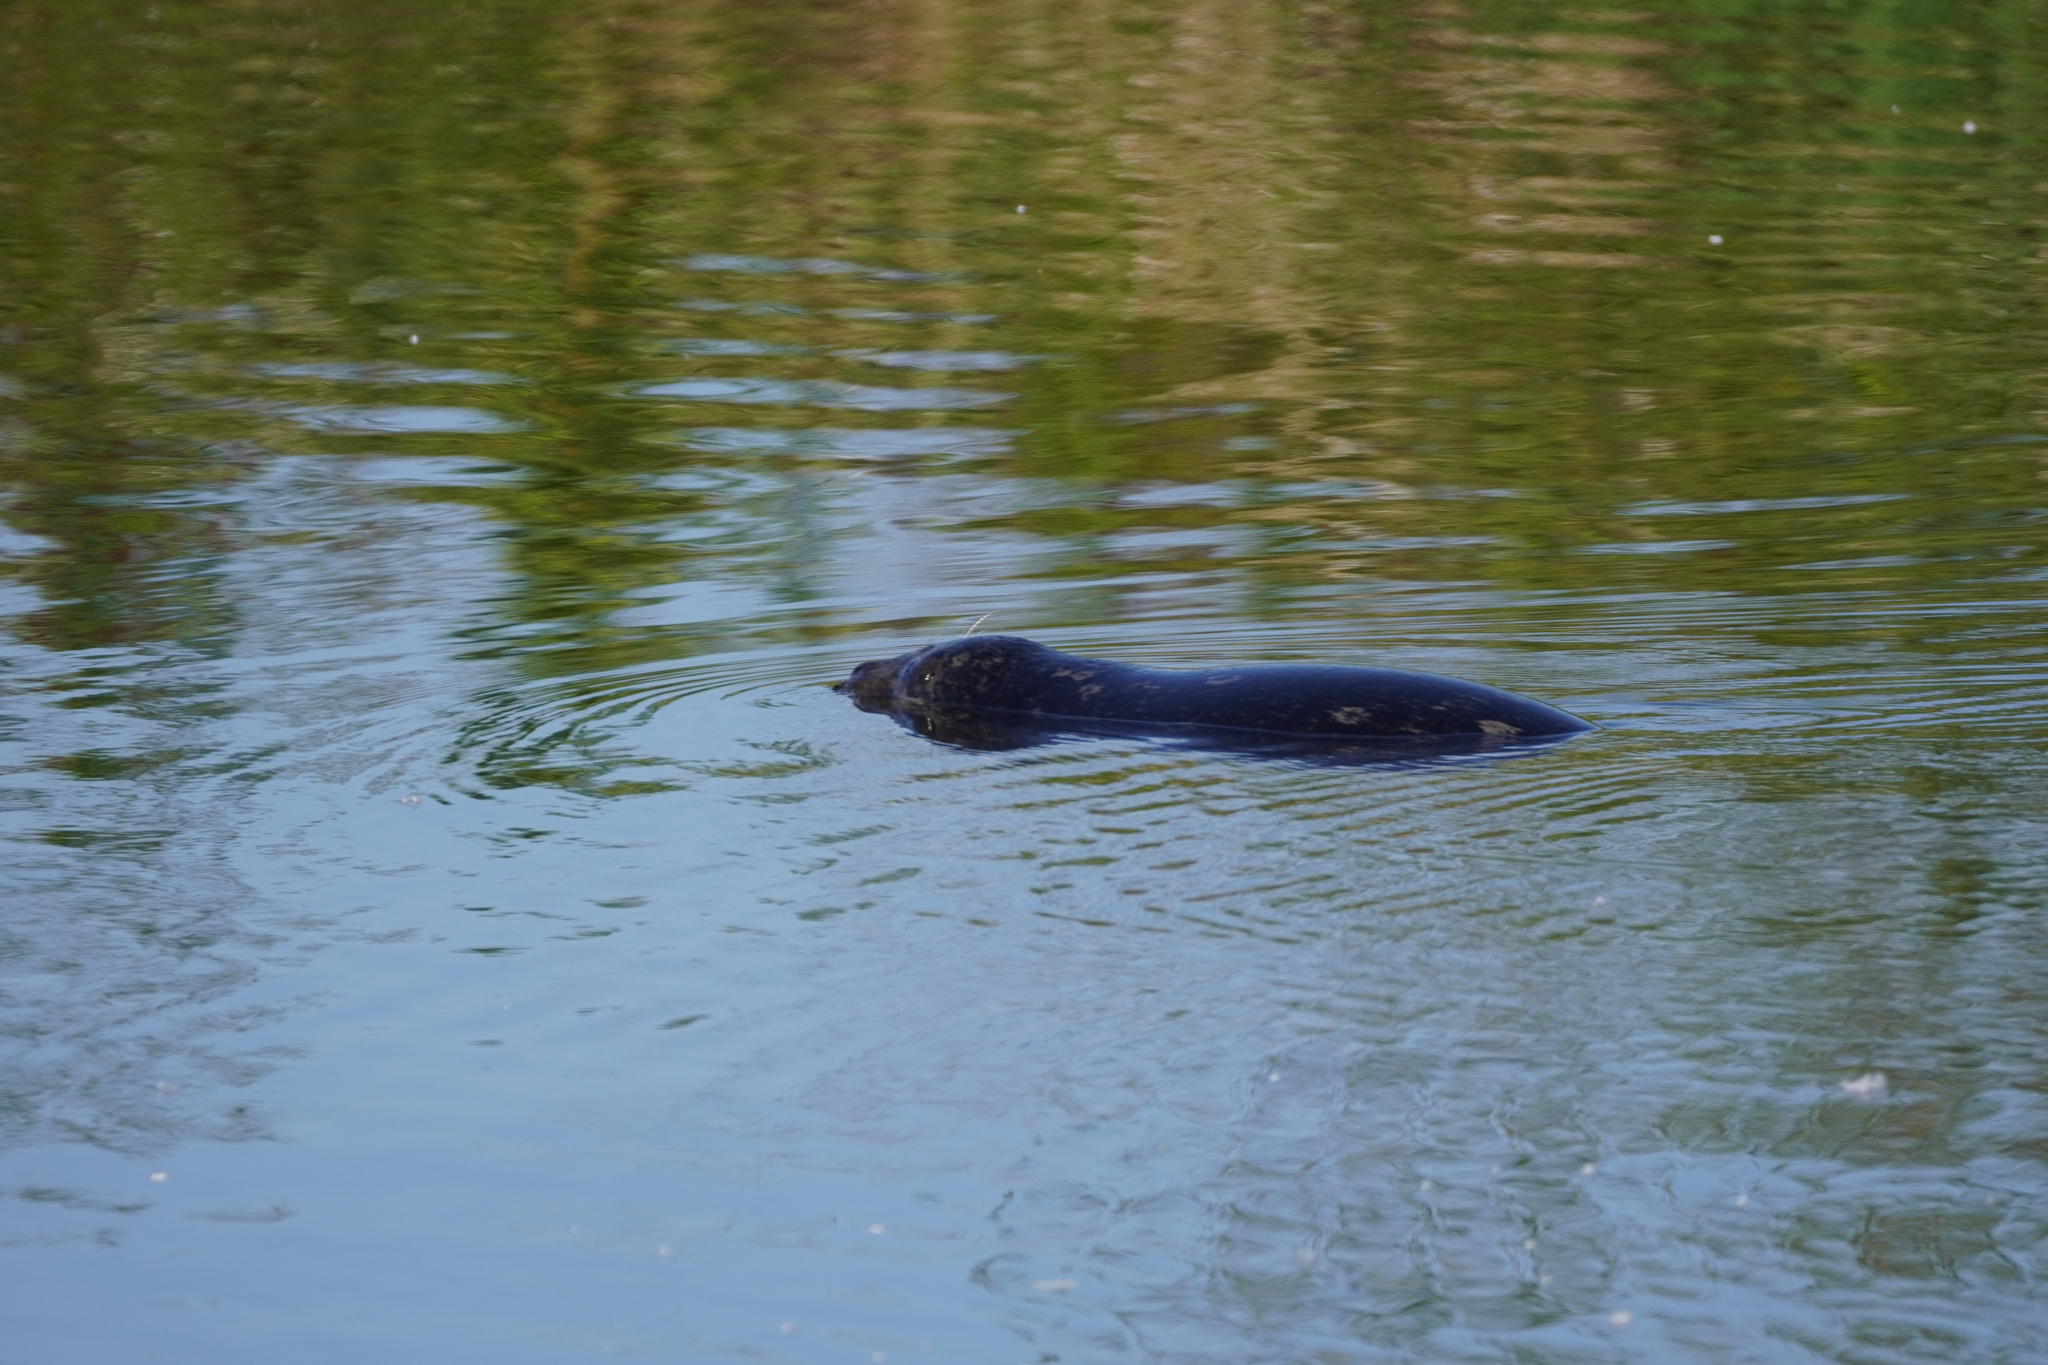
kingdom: Animalia
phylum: Chordata
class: Mammalia
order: Carnivora
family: Phocidae
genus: Phoca
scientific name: Phoca vitulina
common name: Harbor seal
